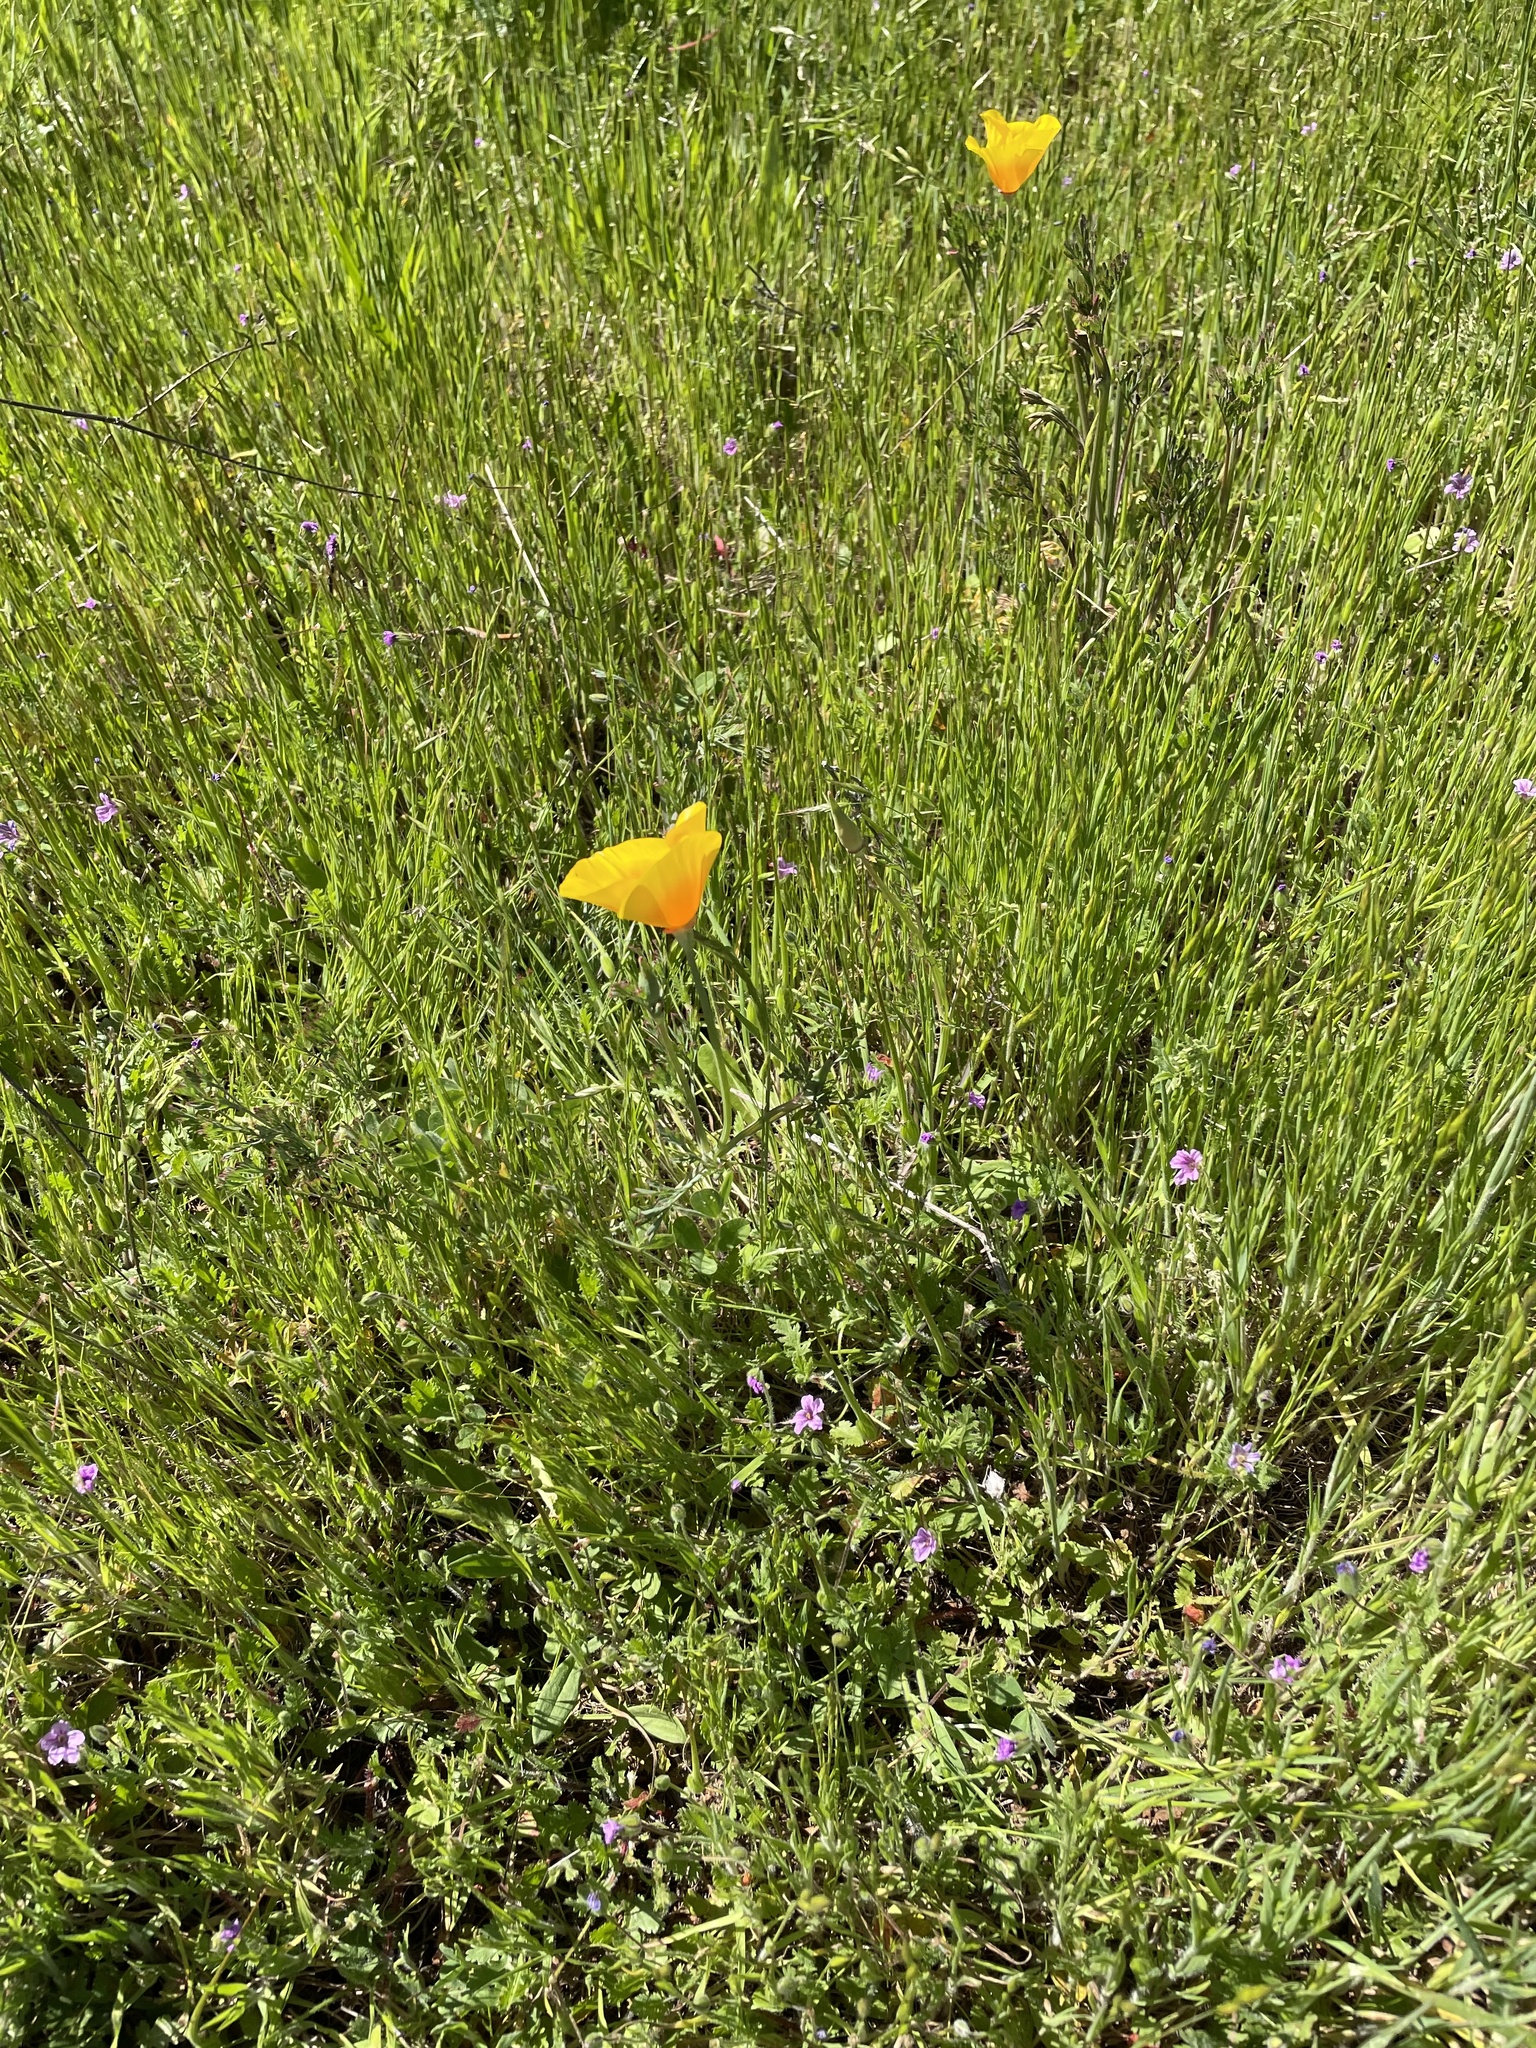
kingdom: Plantae
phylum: Tracheophyta
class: Magnoliopsida
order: Ranunculales
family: Papaveraceae
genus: Eschscholzia
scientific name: Eschscholzia californica
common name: California poppy
